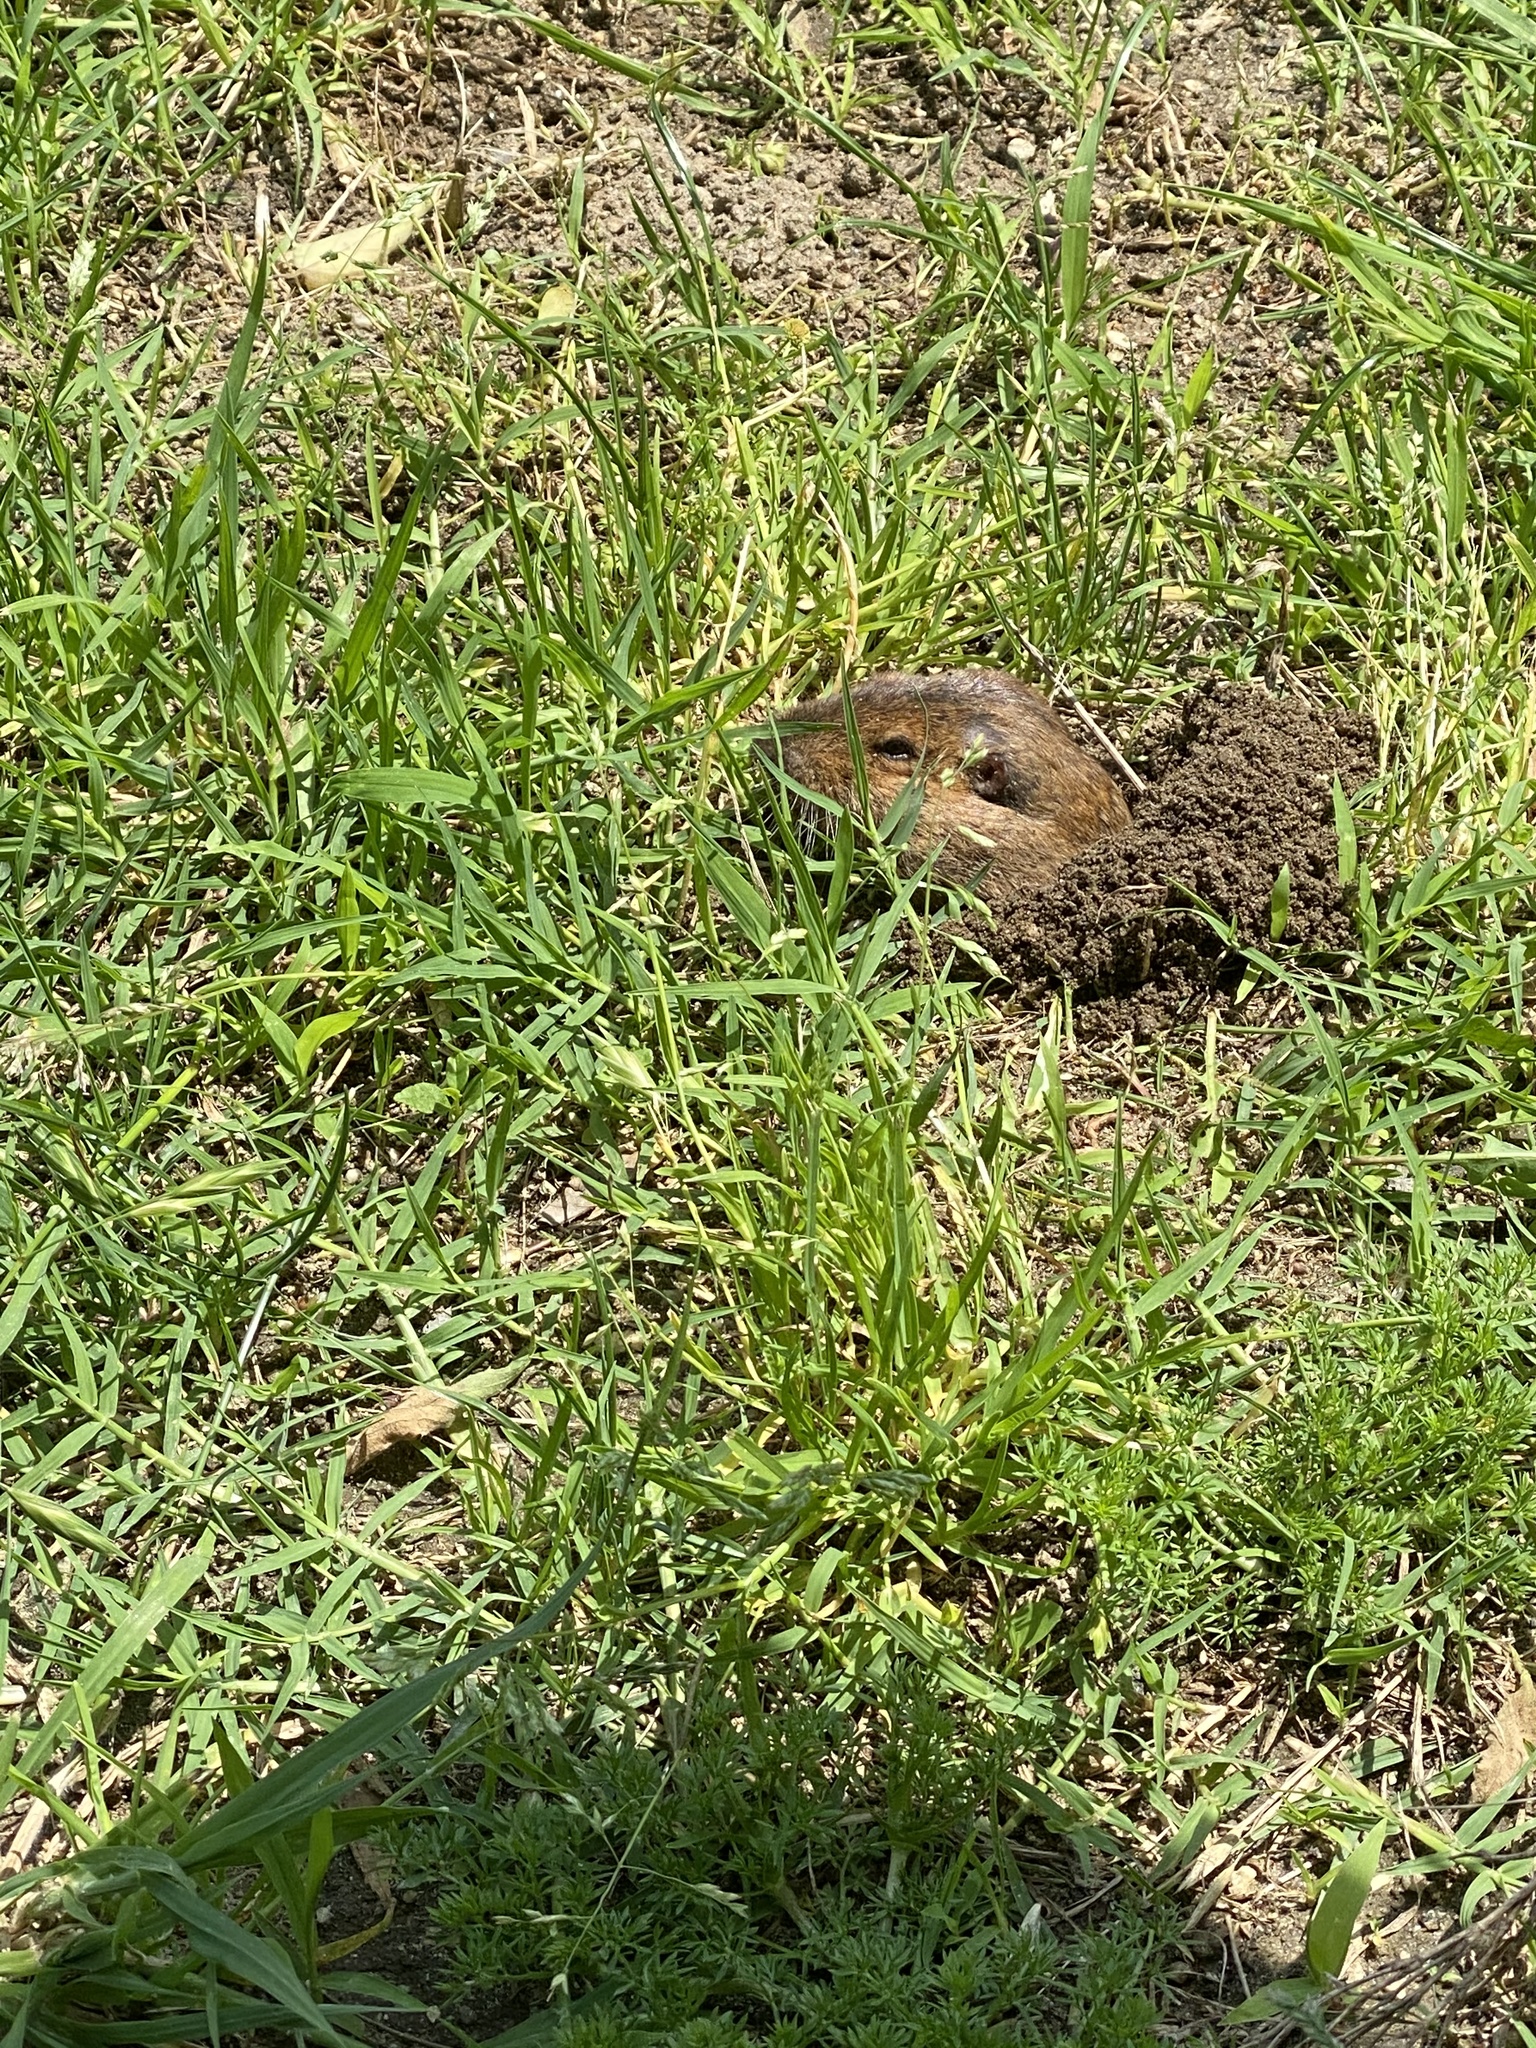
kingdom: Animalia
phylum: Chordata
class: Mammalia
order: Rodentia
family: Geomyidae
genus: Thomomys
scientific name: Thomomys bottae
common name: Botta's pocket gopher
